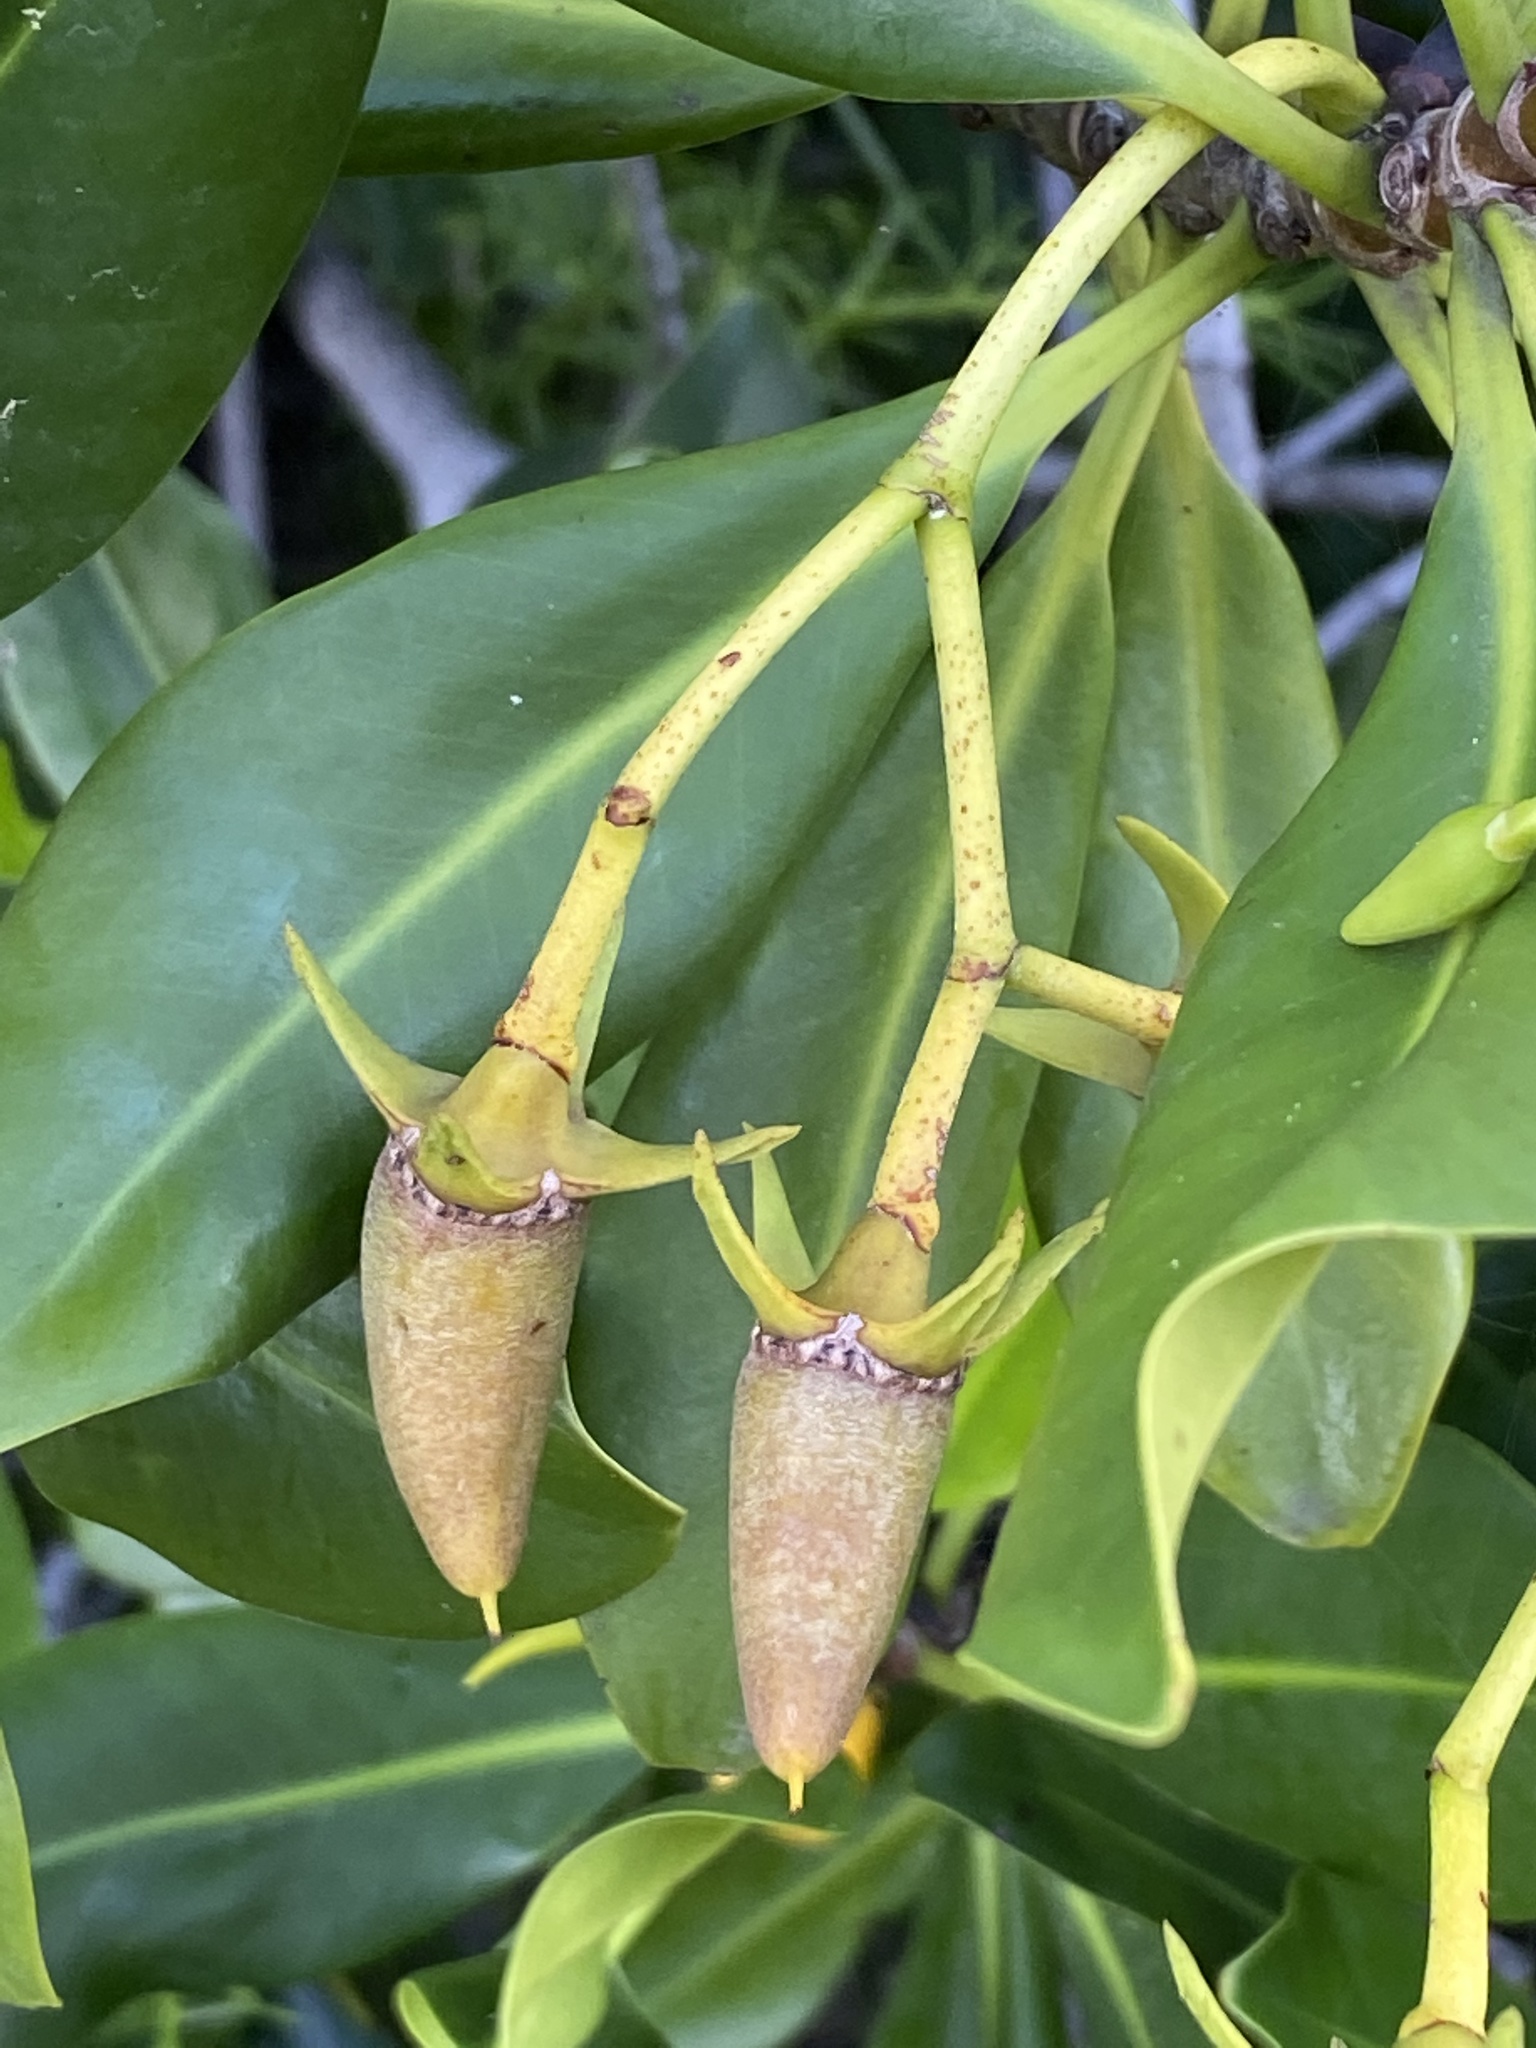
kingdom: Plantae
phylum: Tracheophyta
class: Magnoliopsida
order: Malpighiales
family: Rhizophoraceae
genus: Rhizophora
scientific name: Rhizophora mangle
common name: Red mangrove
